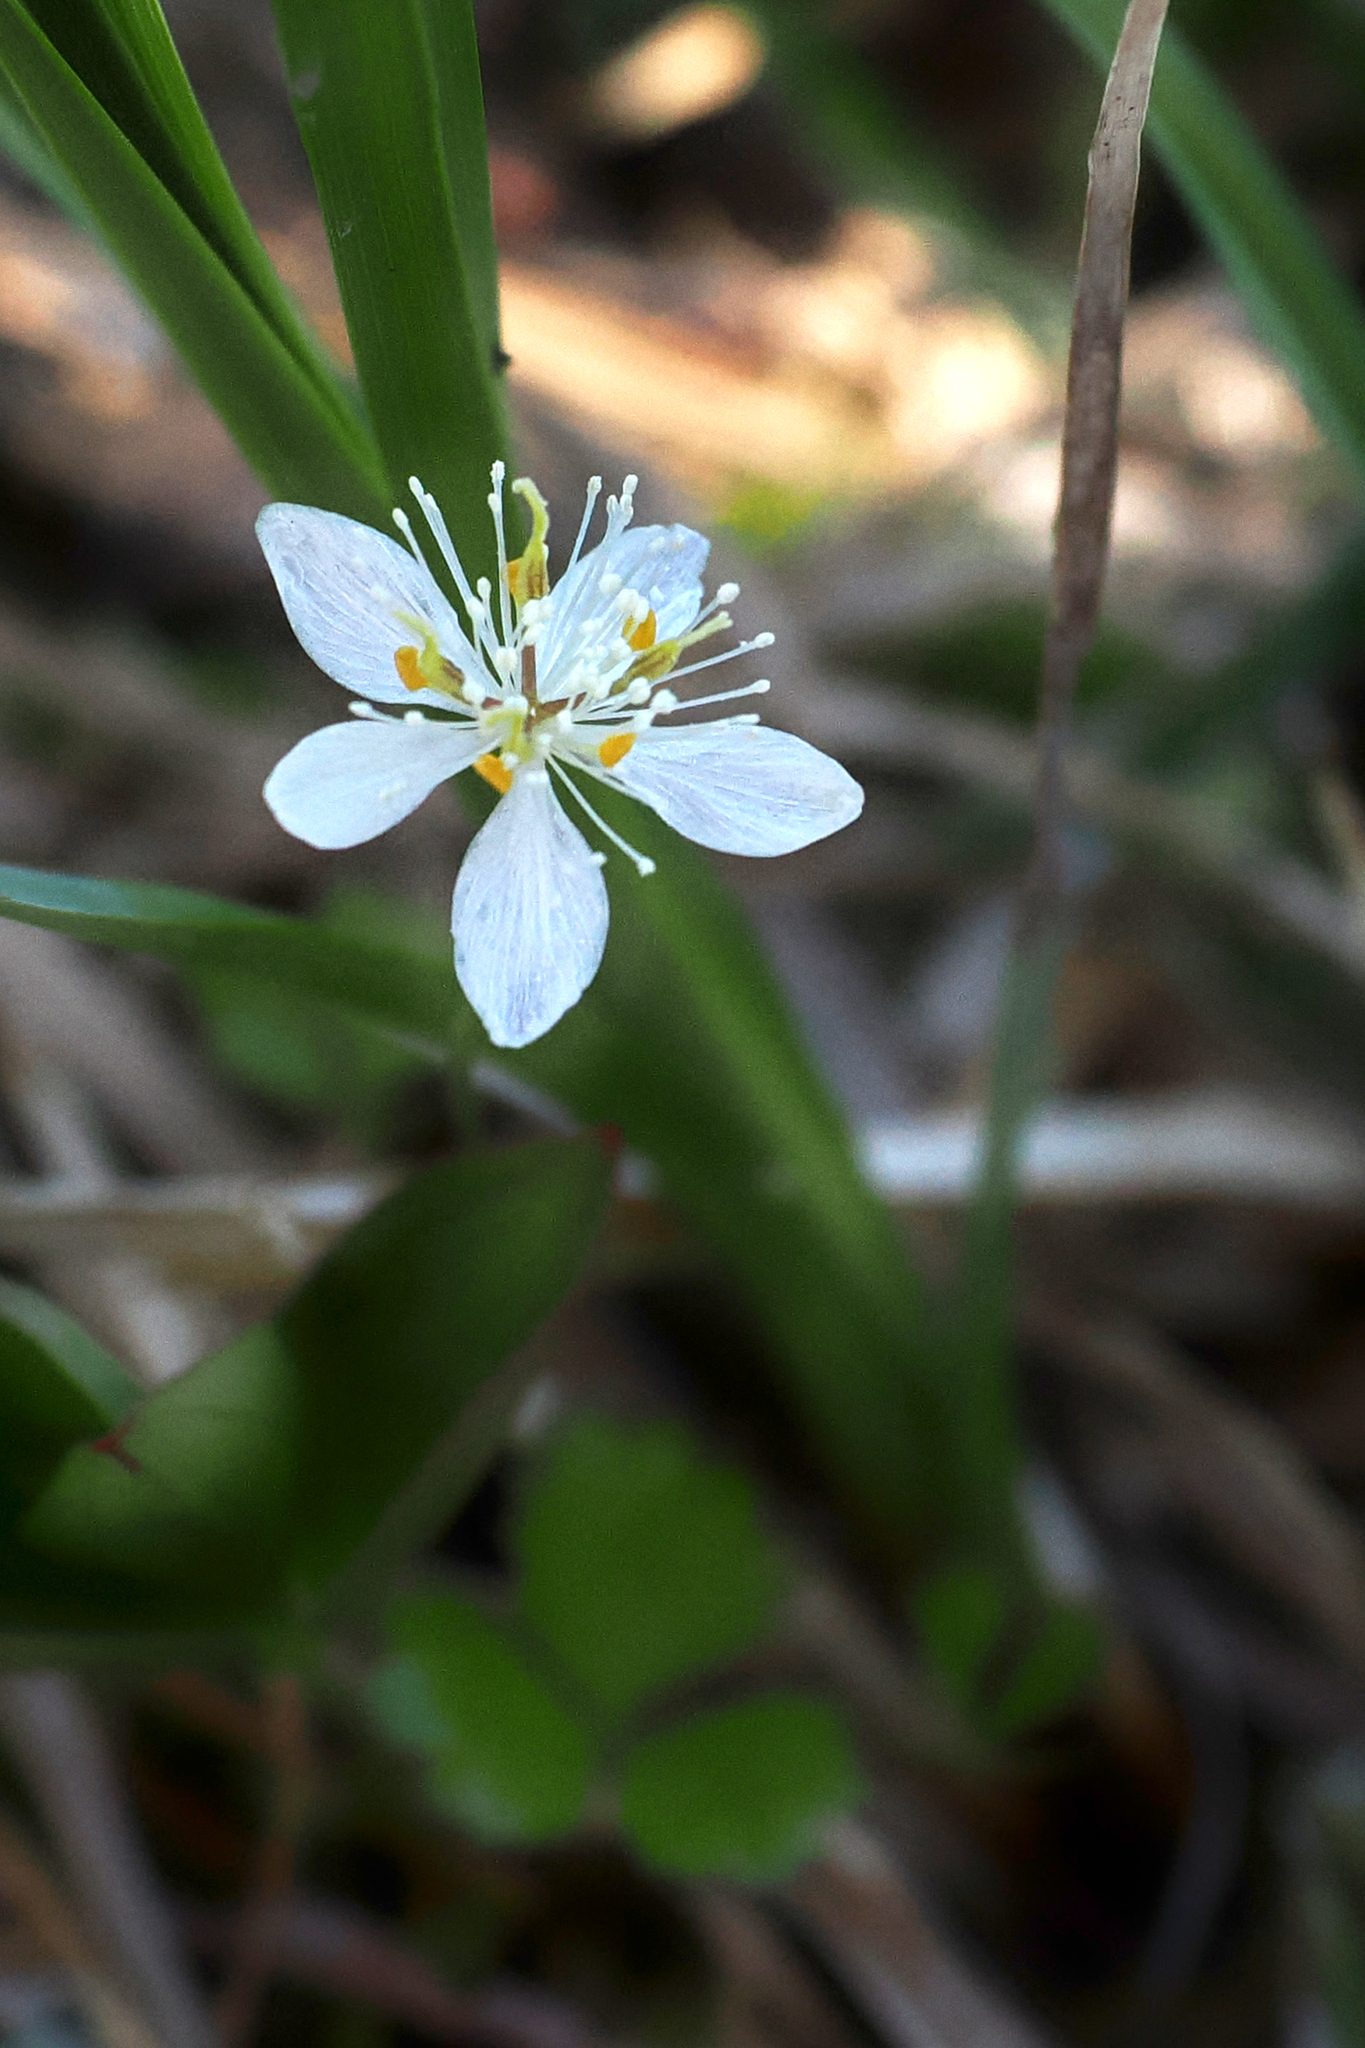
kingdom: Plantae
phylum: Tracheophyta
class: Magnoliopsida
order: Ranunculales
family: Ranunculaceae
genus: Coptis
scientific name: Coptis trifolia
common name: Canker-root
